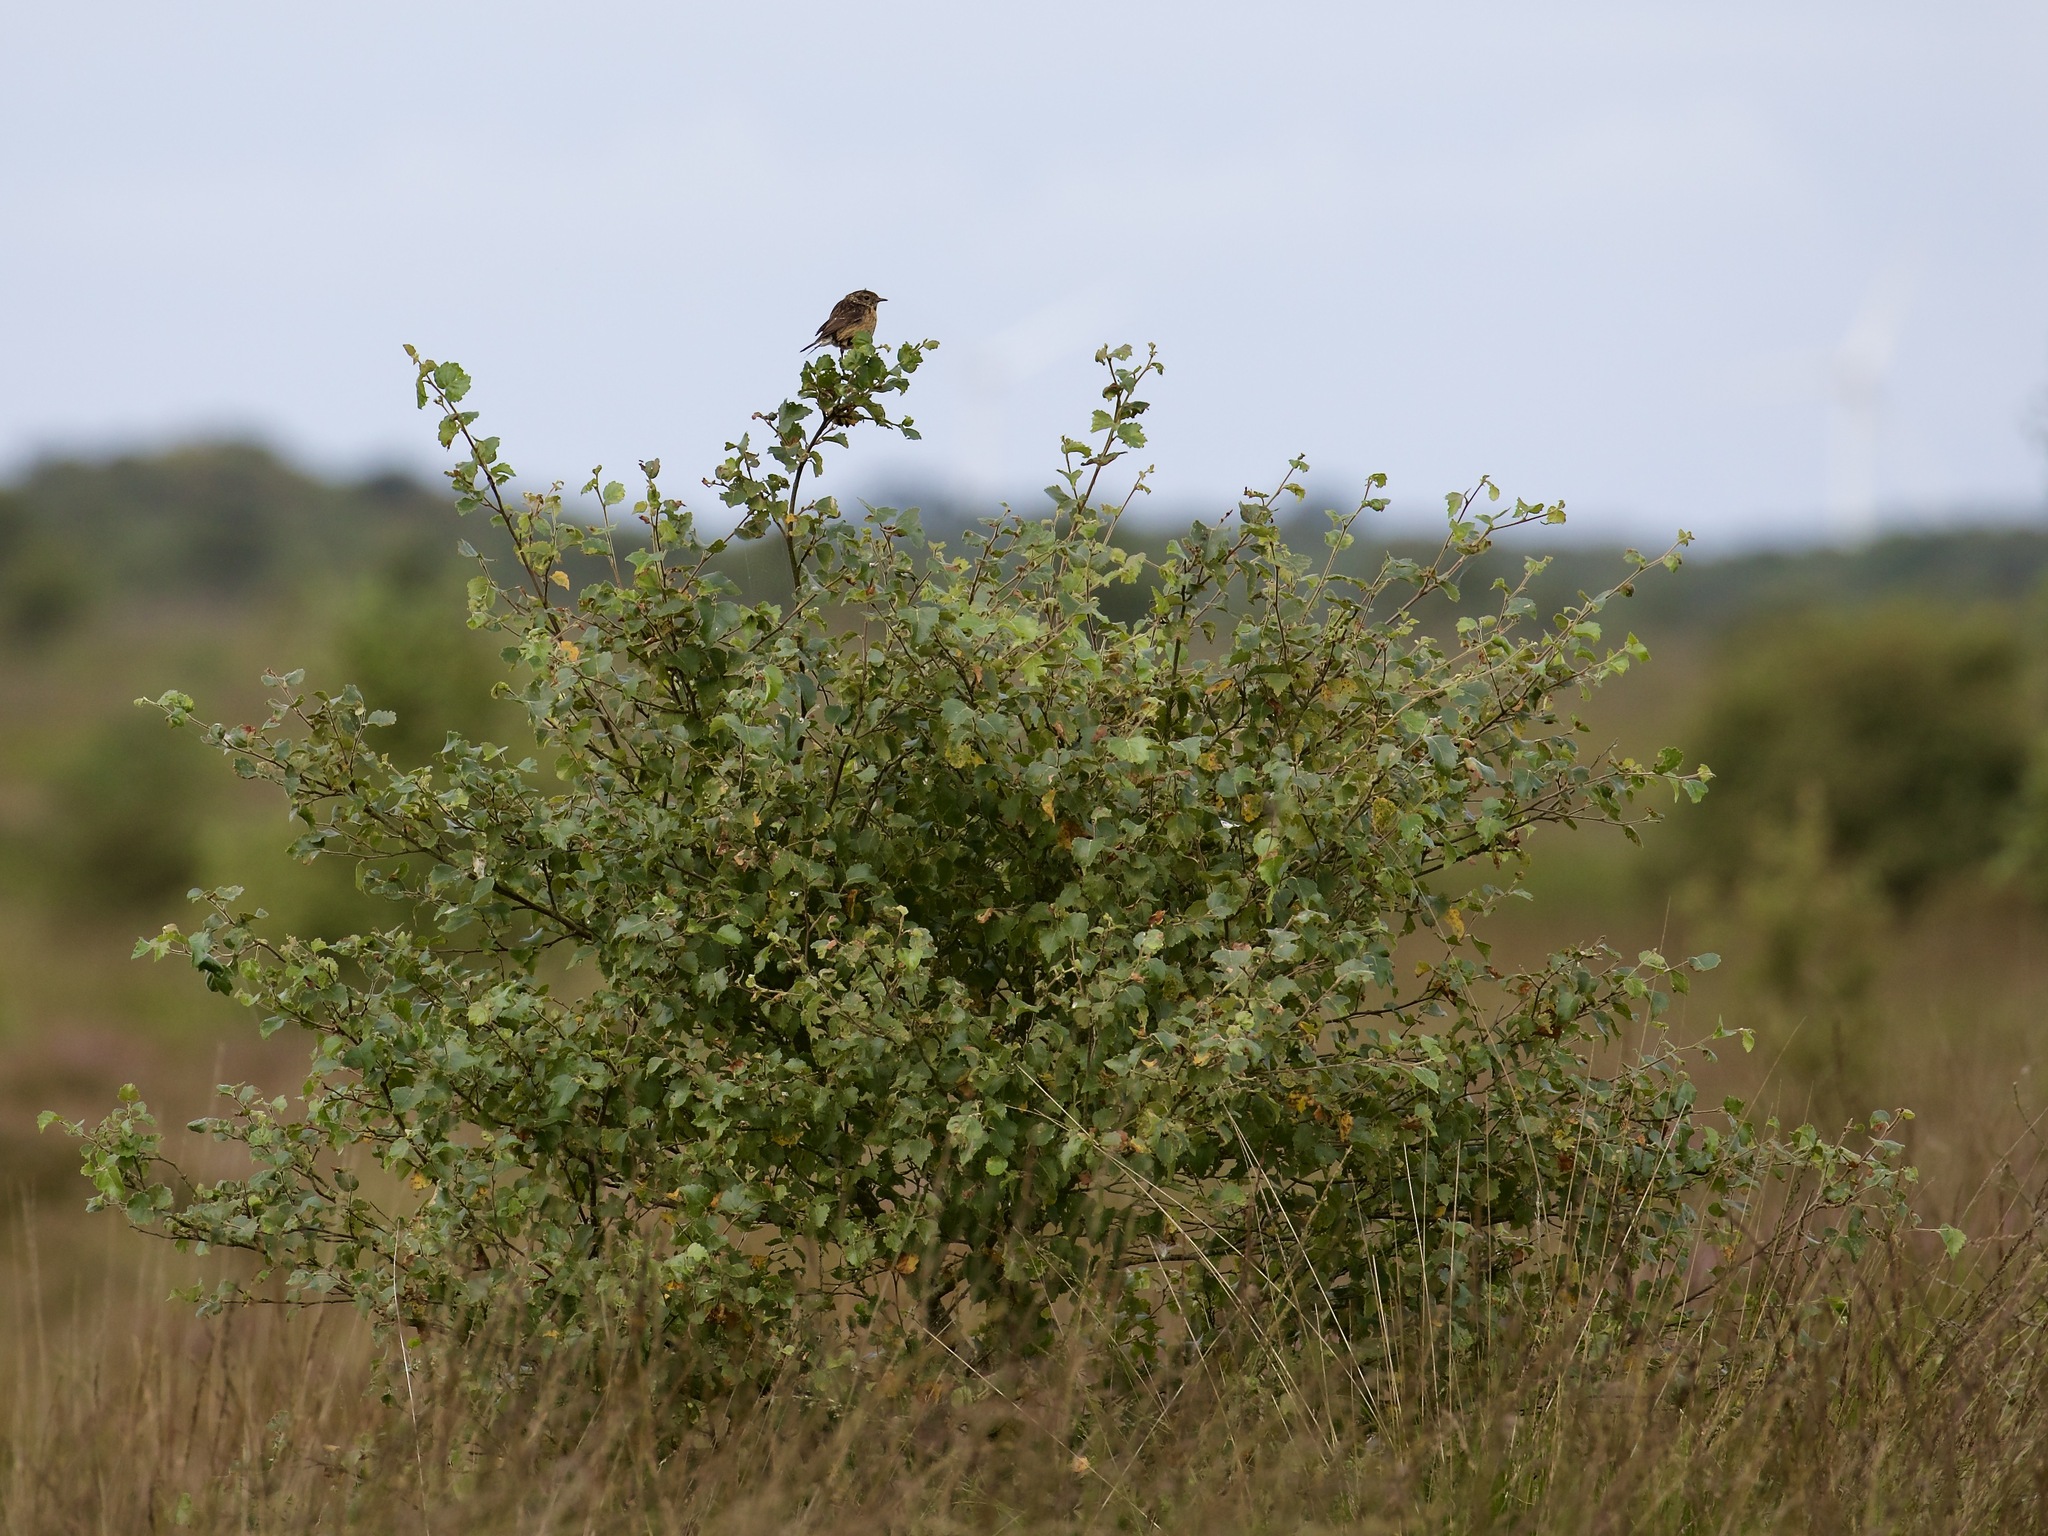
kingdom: Animalia
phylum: Chordata
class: Aves
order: Passeriformes
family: Muscicapidae
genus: Saxicola
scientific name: Saxicola rubicola
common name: European stonechat
